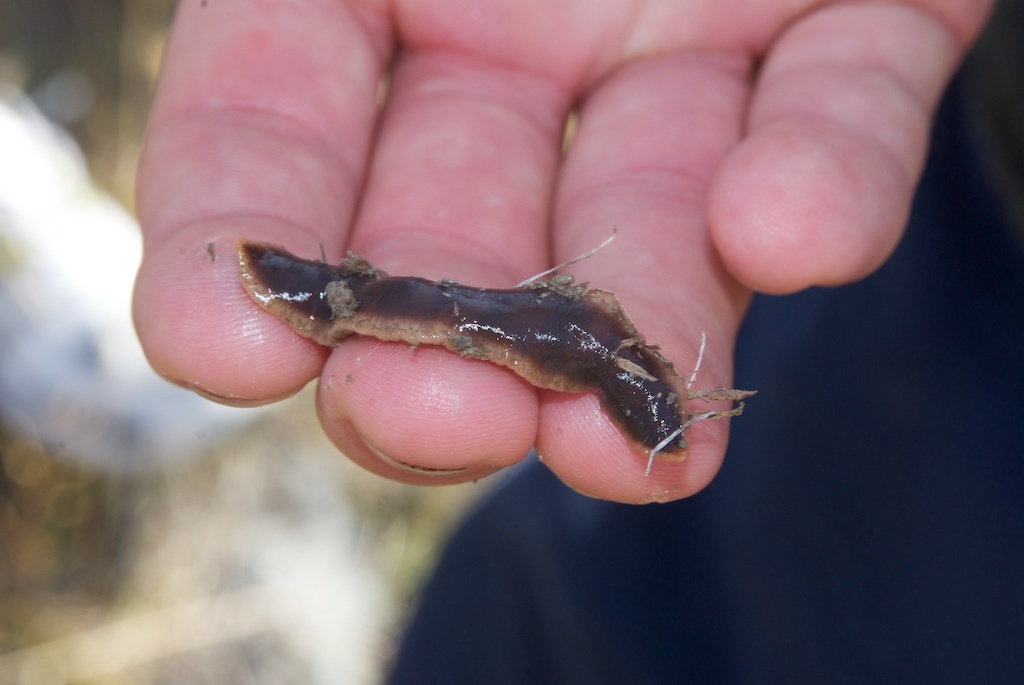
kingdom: Animalia
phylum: Platyhelminthes
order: Tricladida
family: Geoplanidae
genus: Arthurdendyus
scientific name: Arthurdendyus triangulatus
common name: New zealand flatworm
